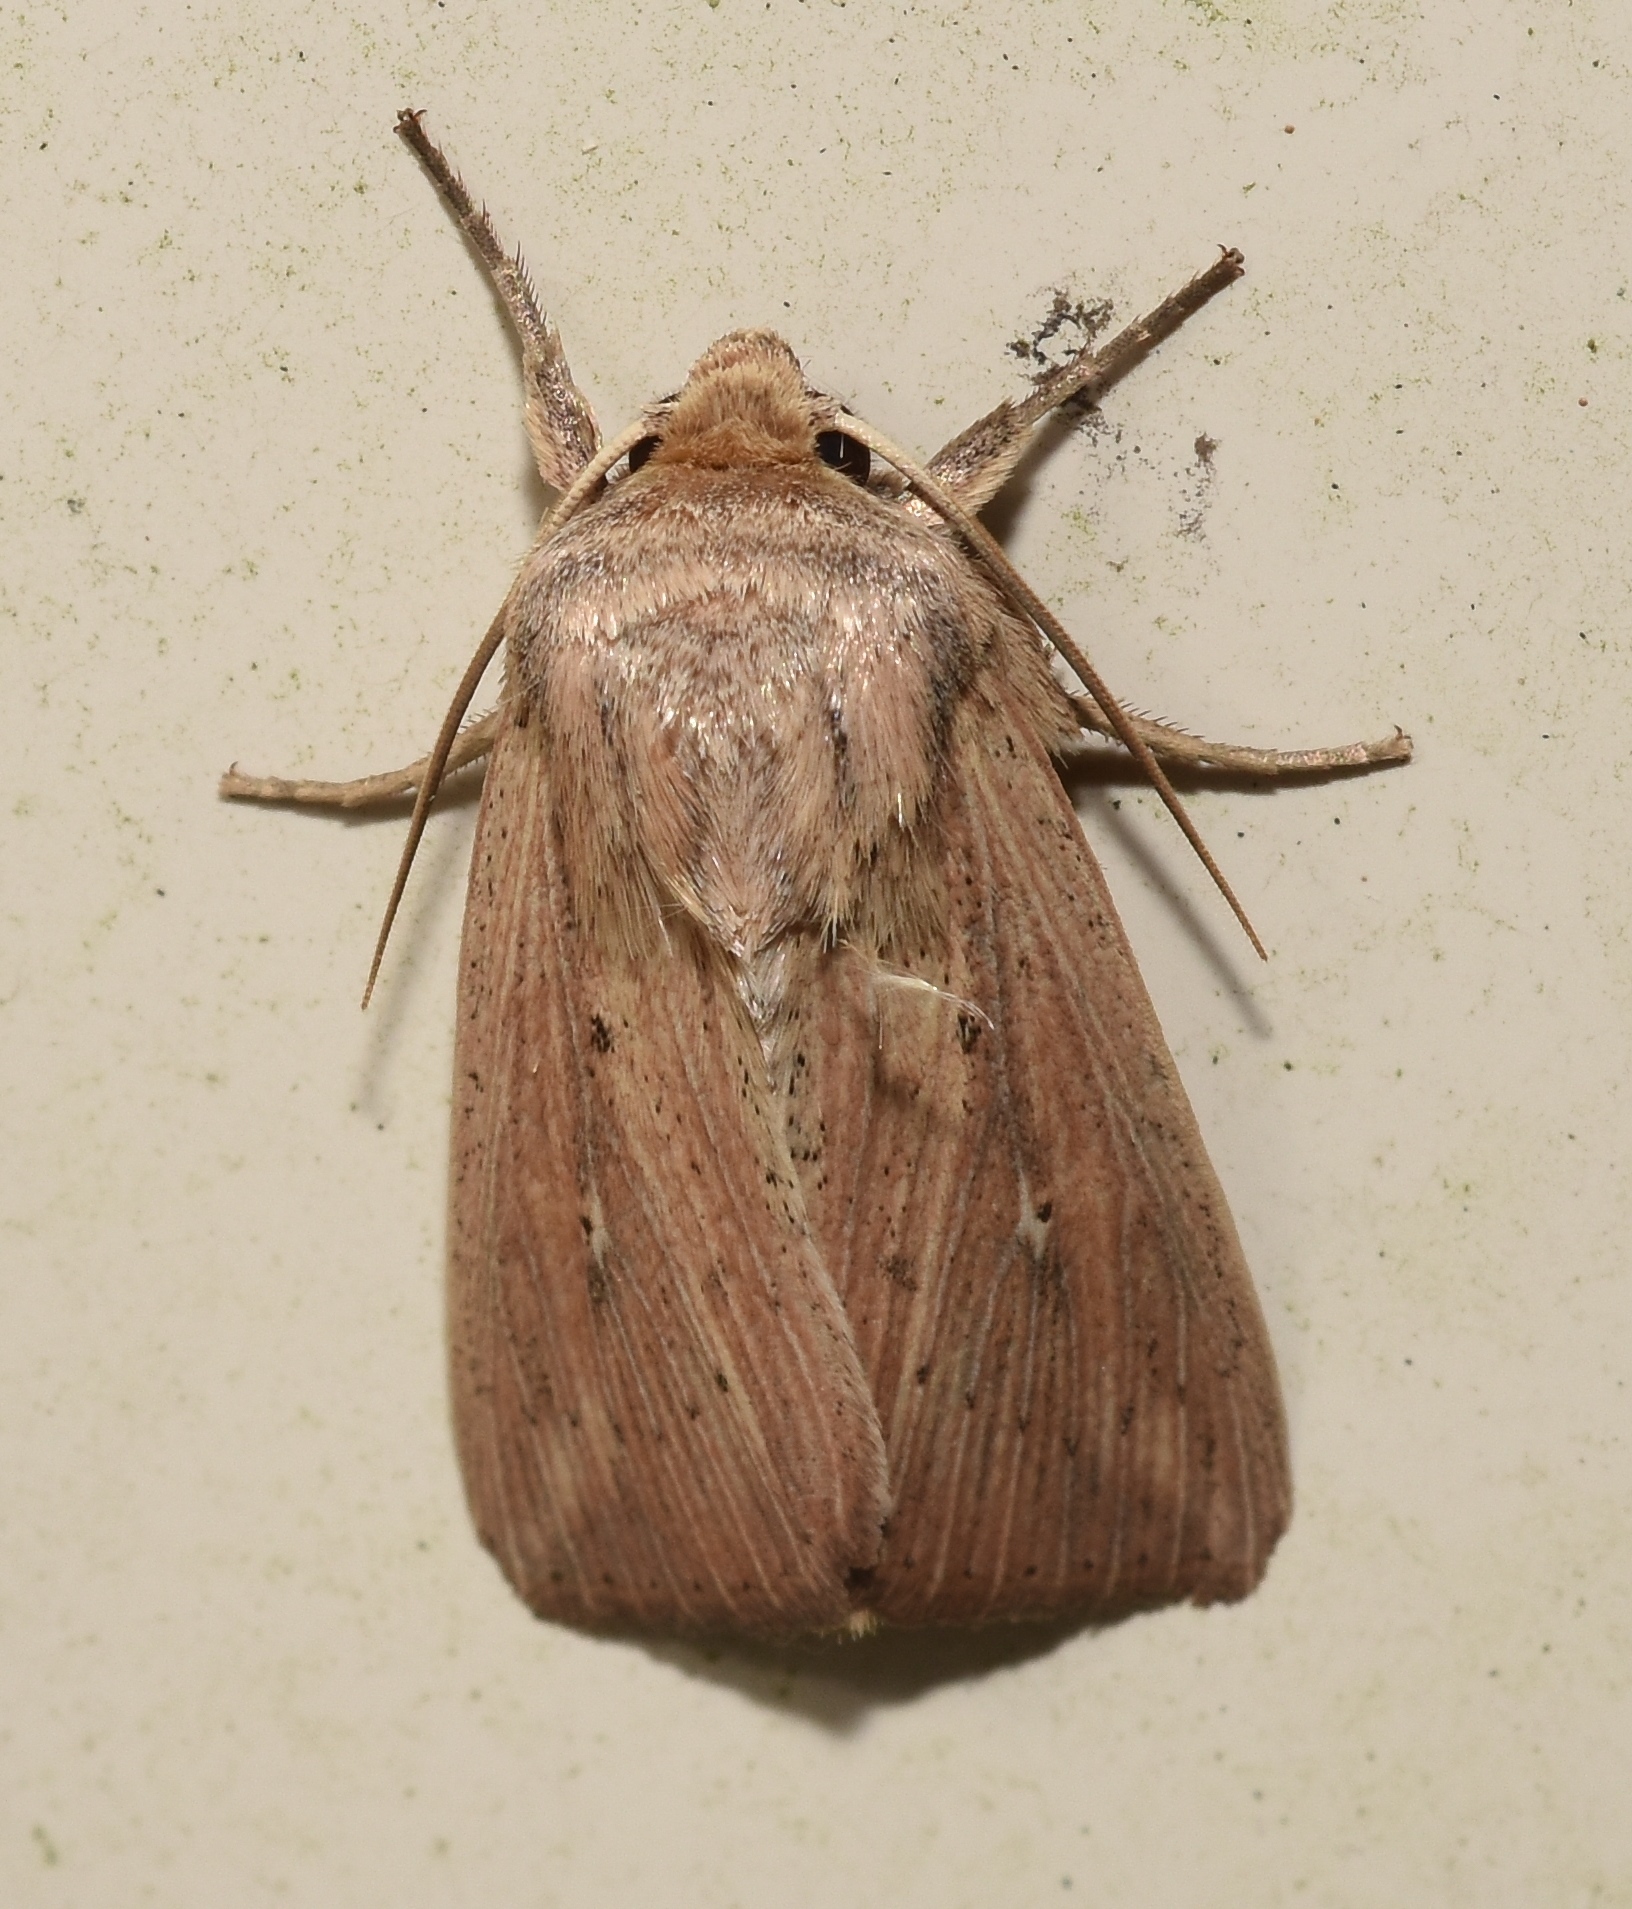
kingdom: Animalia
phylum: Arthropoda
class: Insecta
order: Lepidoptera
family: Noctuidae
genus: Leucania
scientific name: Leucania linda
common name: Linda's wainscot
